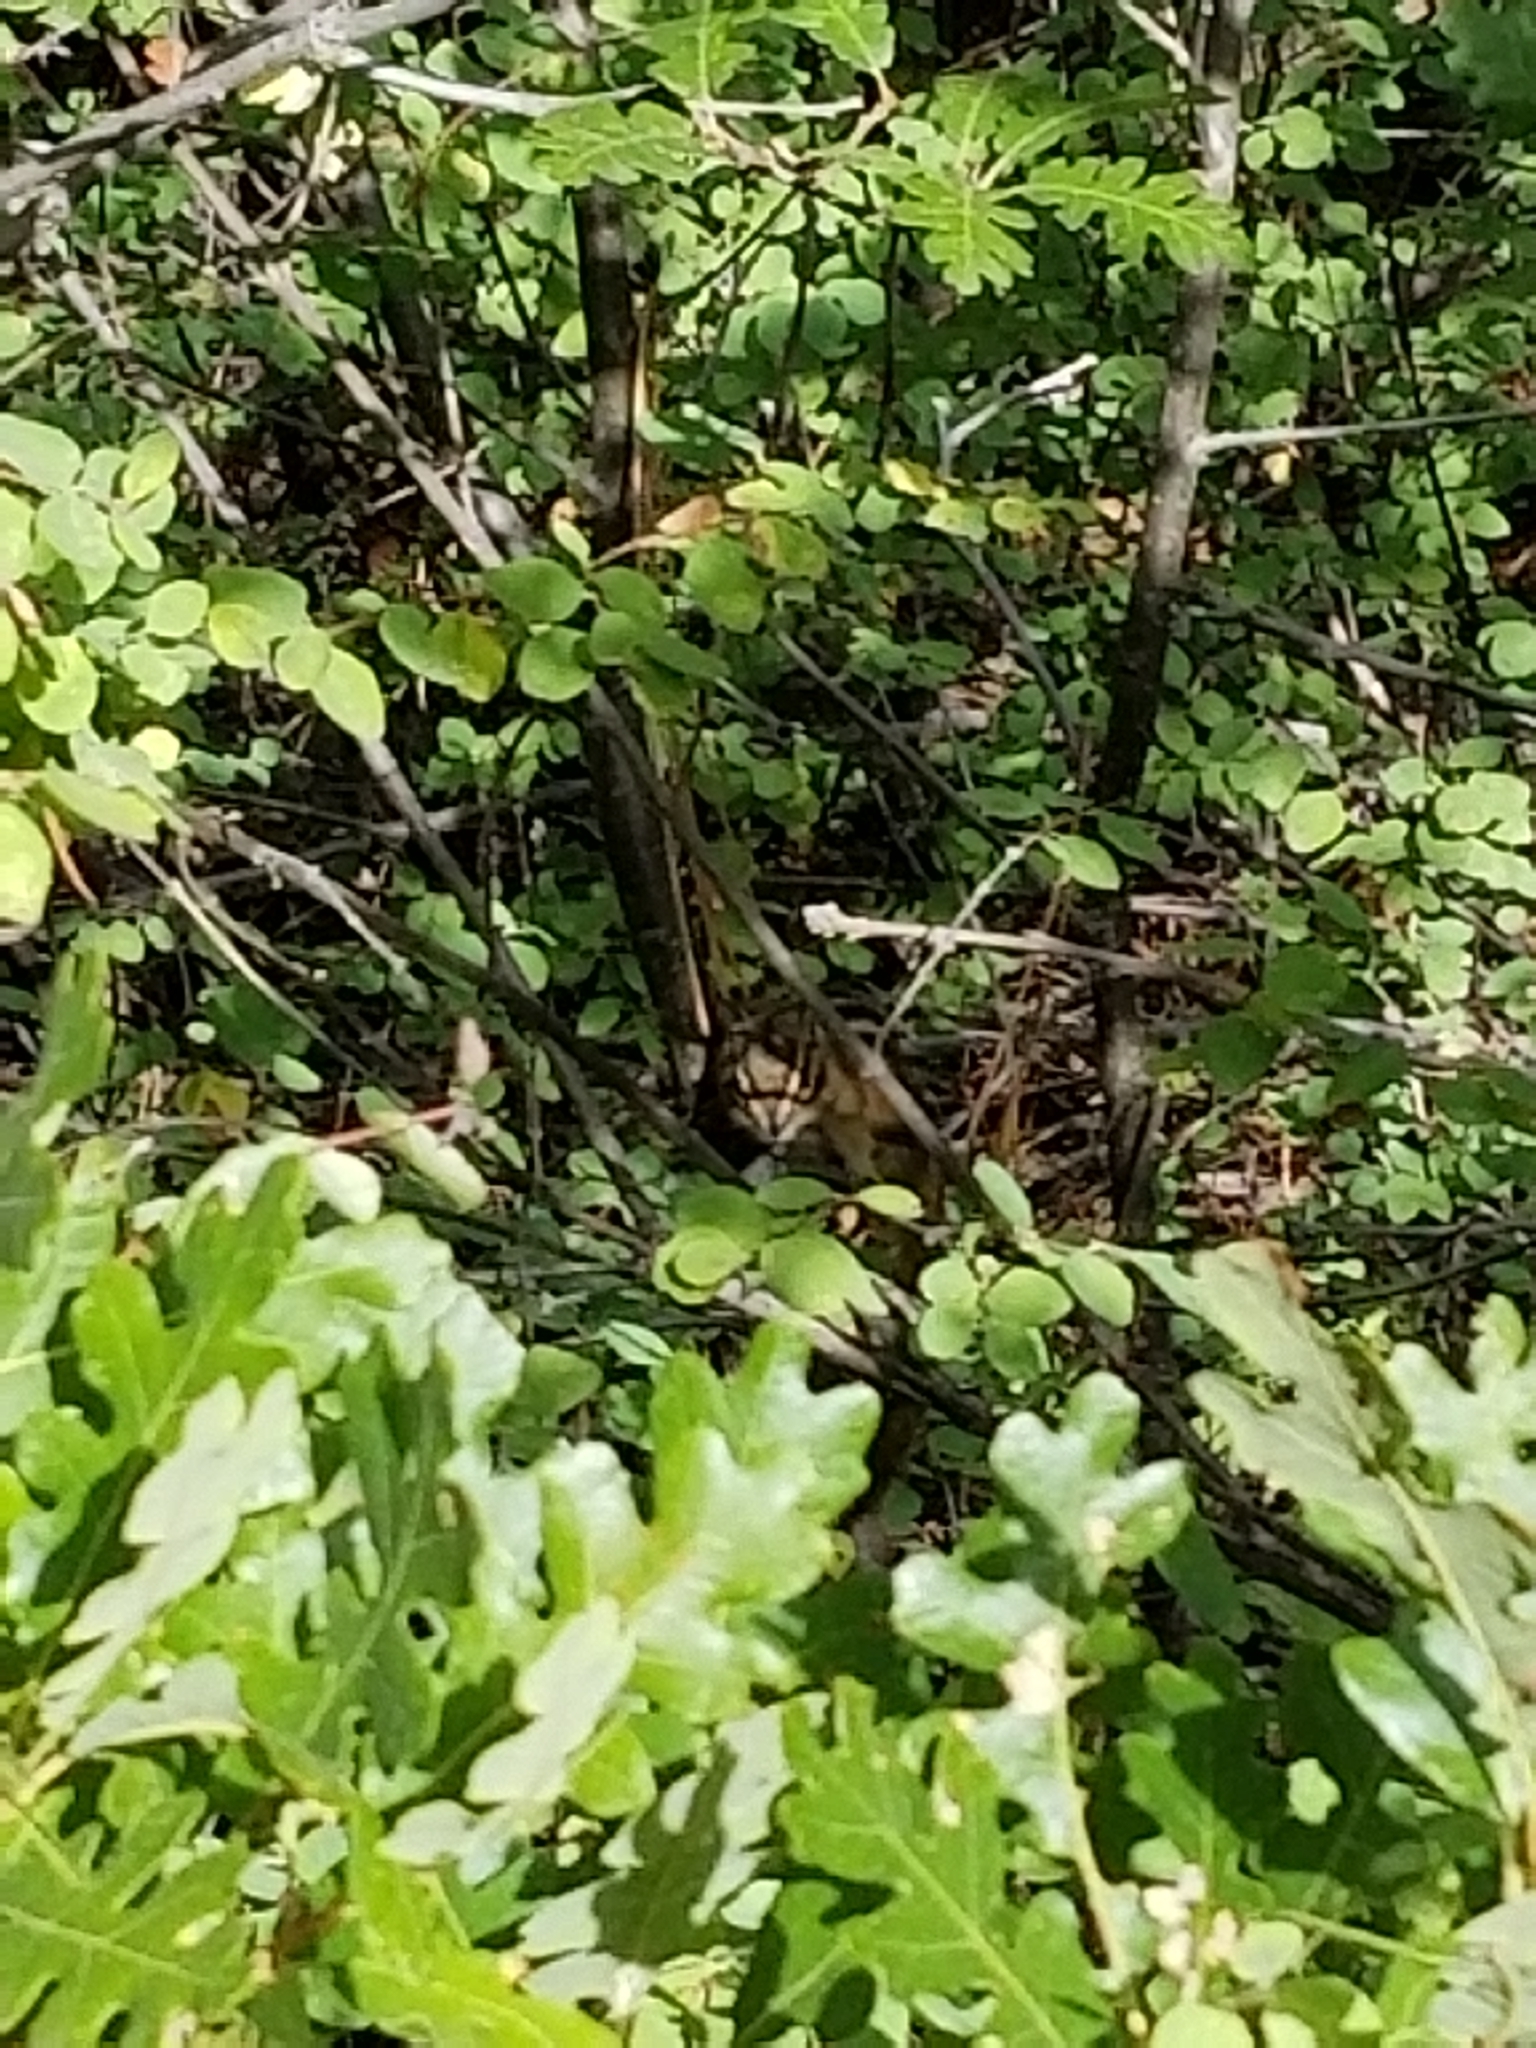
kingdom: Animalia
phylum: Chordata
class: Mammalia
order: Rodentia
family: Sciuridae
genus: Tamias
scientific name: Tamias minimus
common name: Least chipmunk
